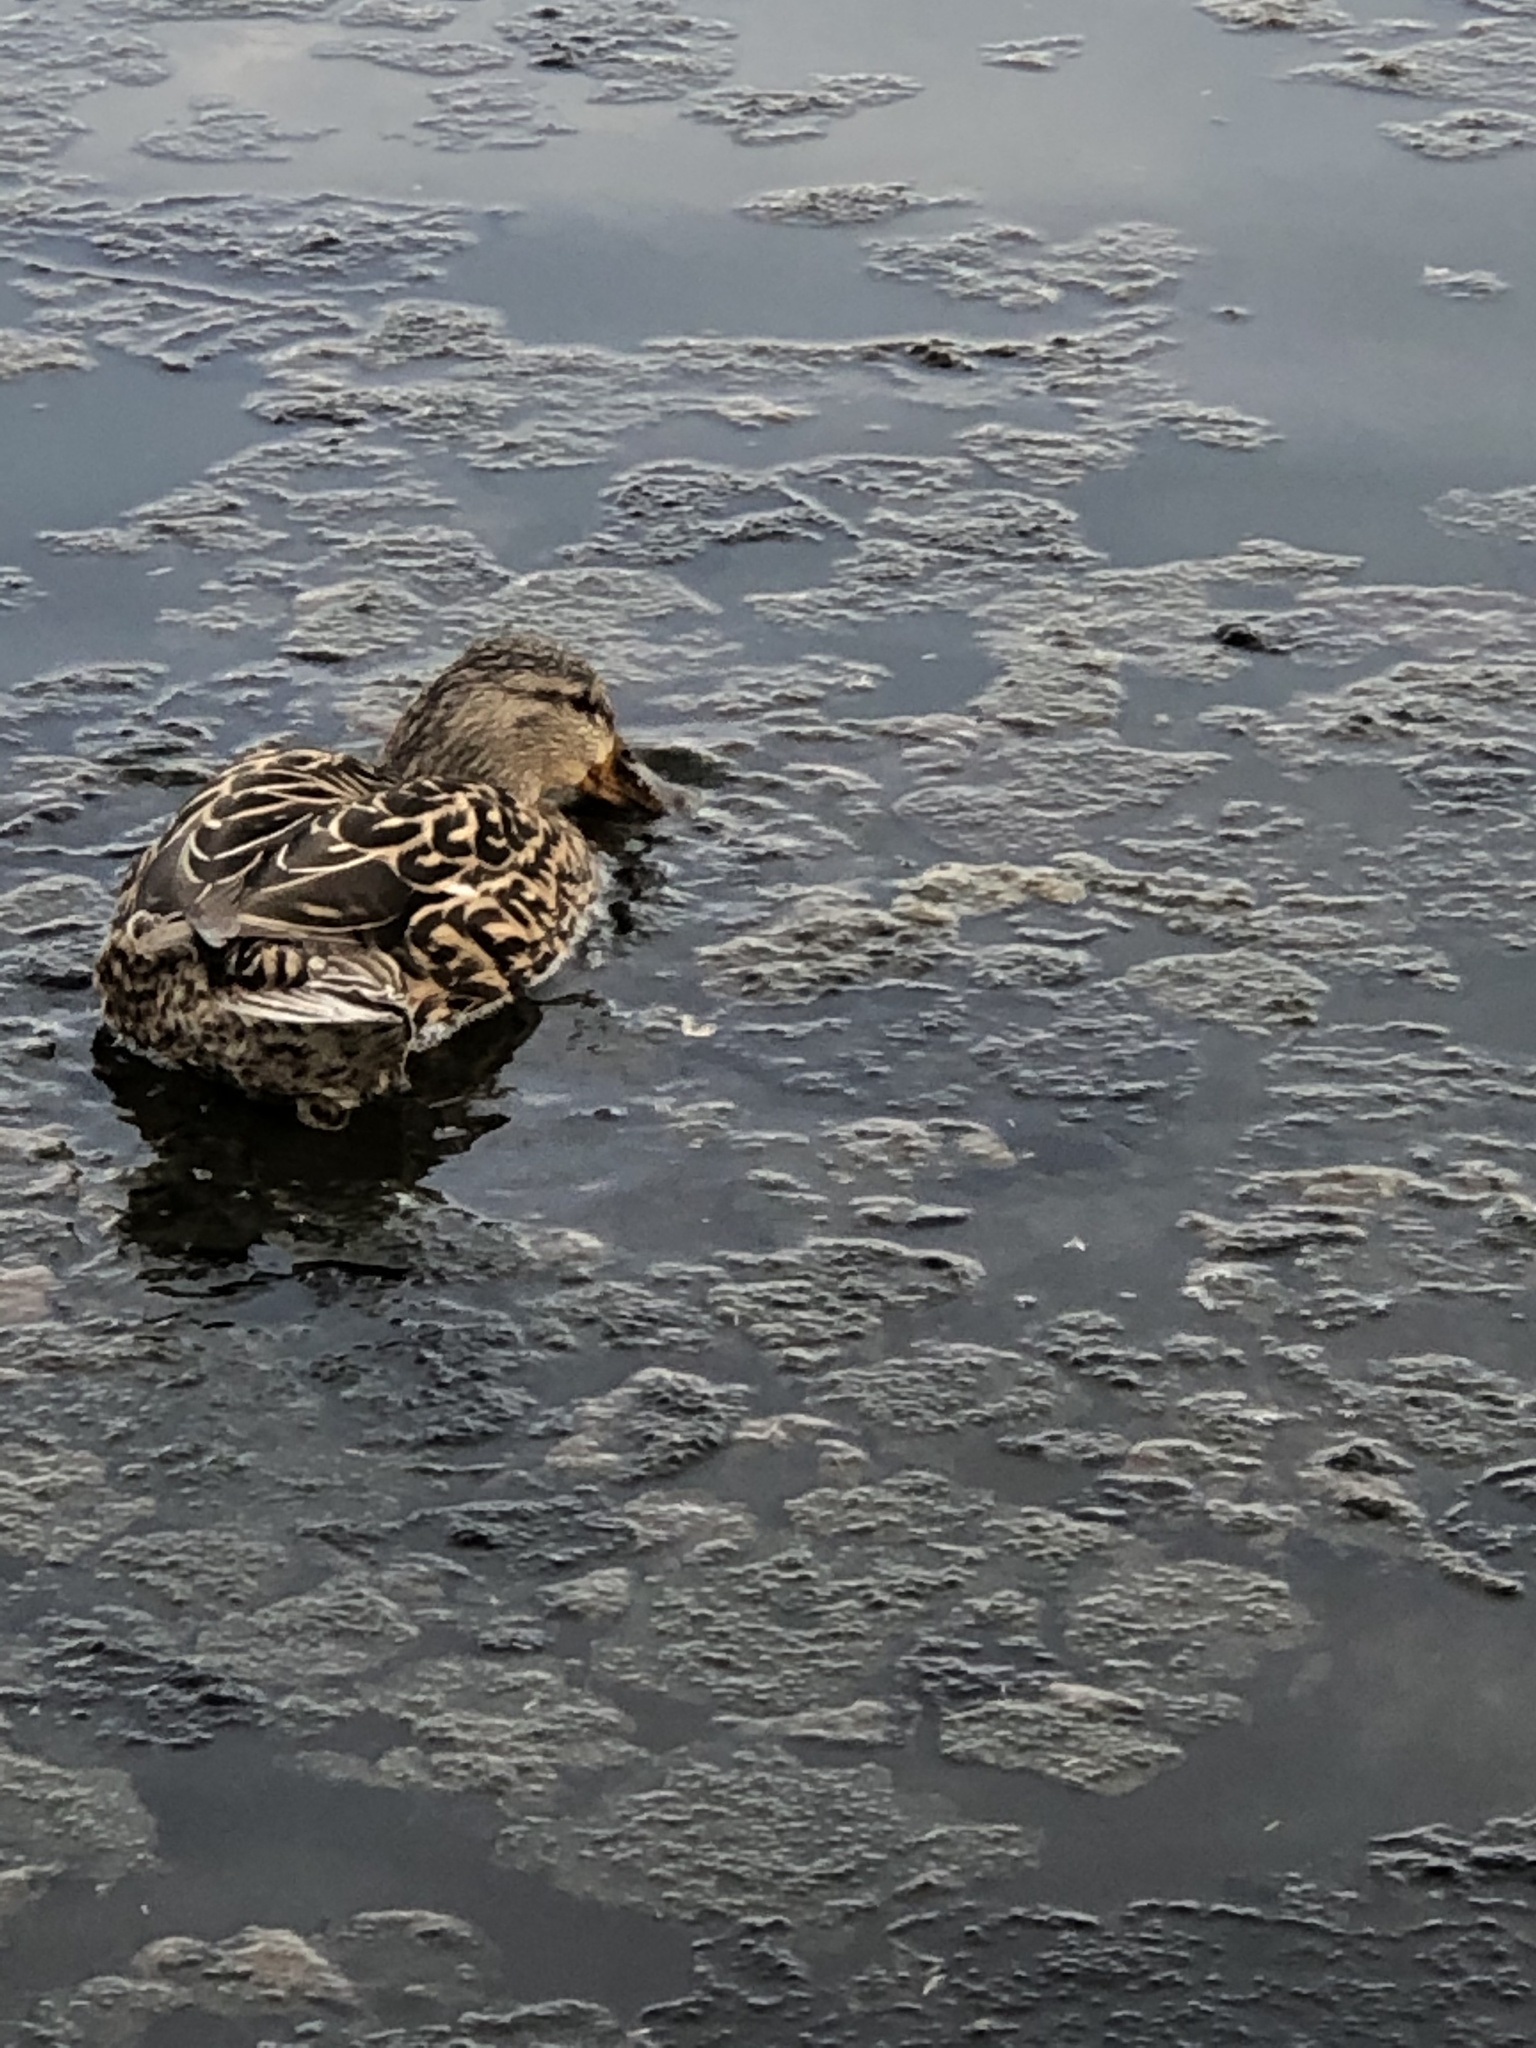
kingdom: Animalia
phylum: Chordata
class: Aves
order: Anseriformes
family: Anatidae
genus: Anas
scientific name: Anas platyrhynchos
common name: Mallard
